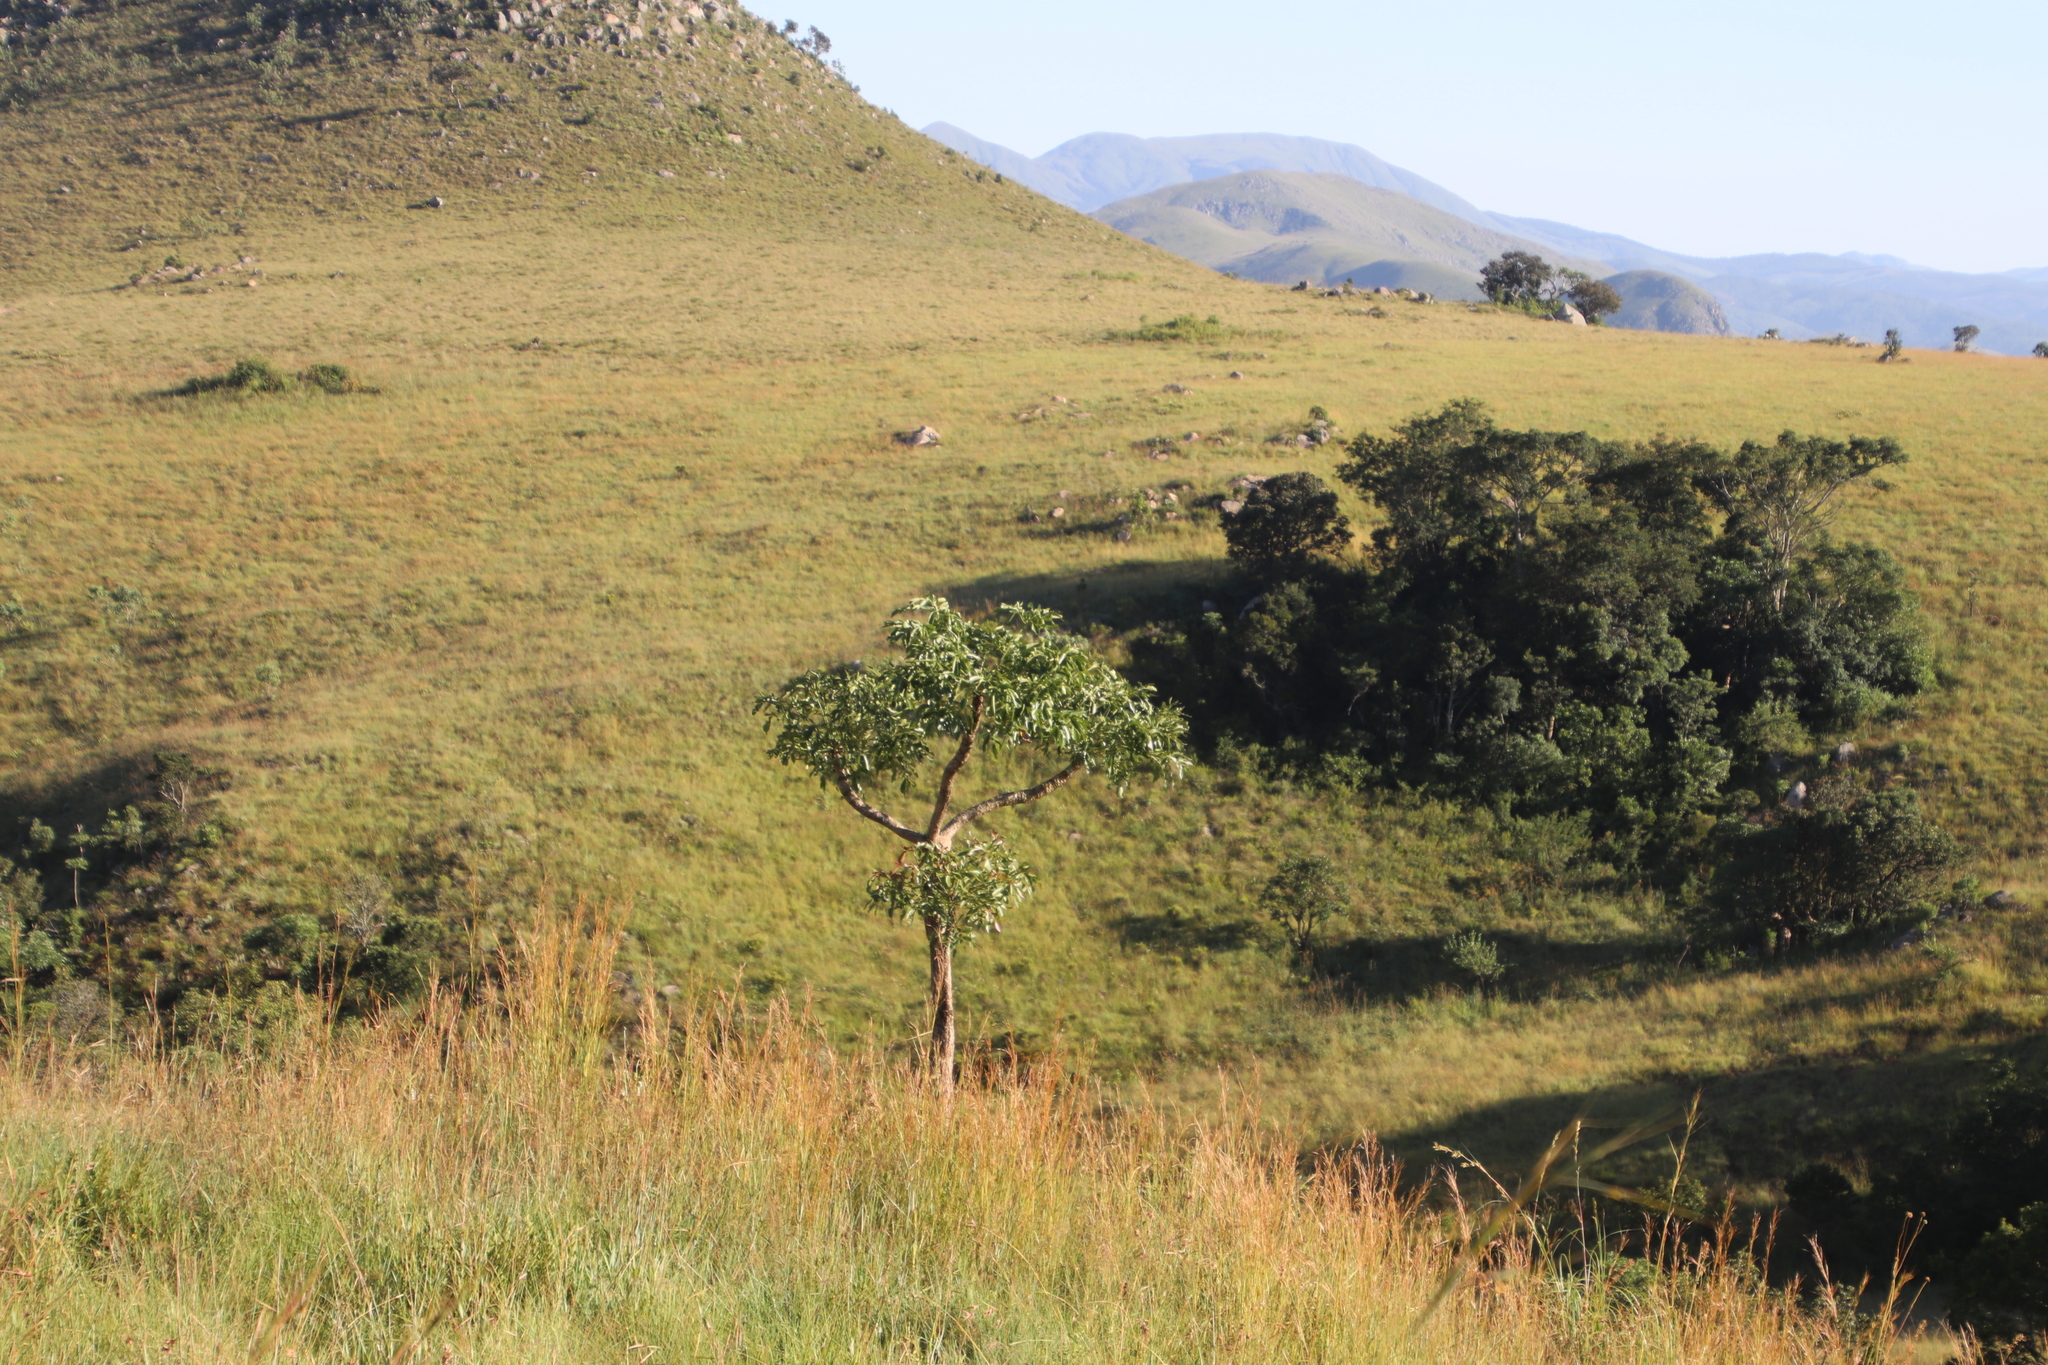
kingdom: Plantae
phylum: Tracheophyta
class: Magnoliopsida
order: Apiales
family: Araliaceae
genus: Cussonia
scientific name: Cussonia spicata
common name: Common cabbagetree
